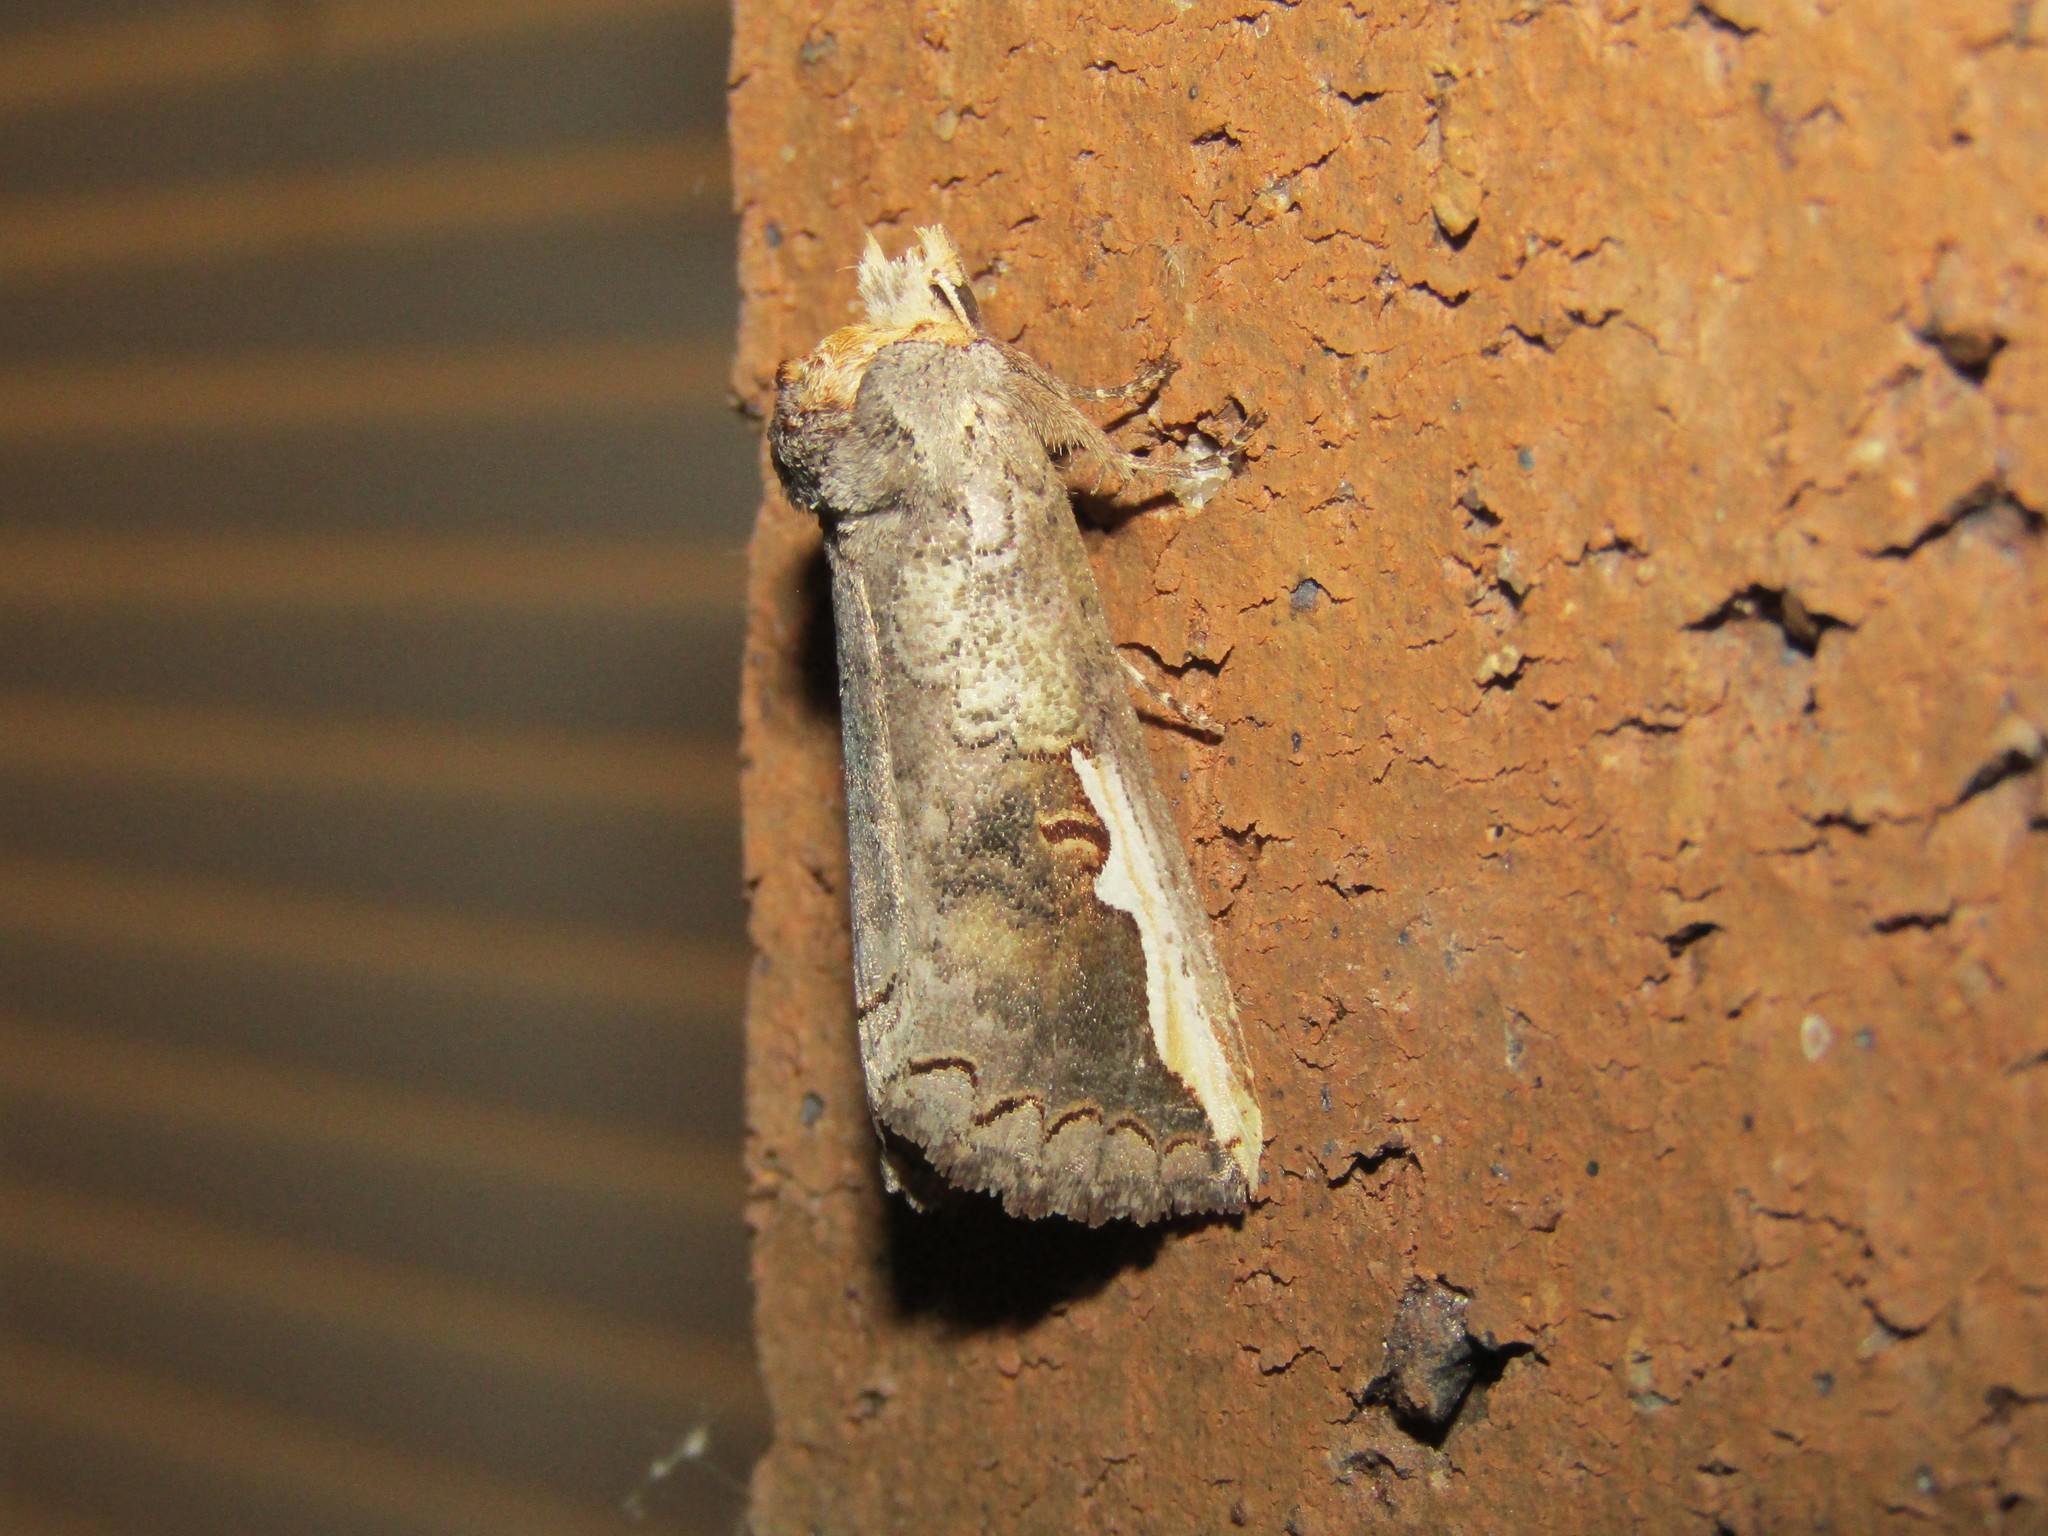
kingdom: Animalia
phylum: Arthropoda
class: Insecta
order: Lepidoptera
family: Notodontidae
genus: Symmerista
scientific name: Symmerista
